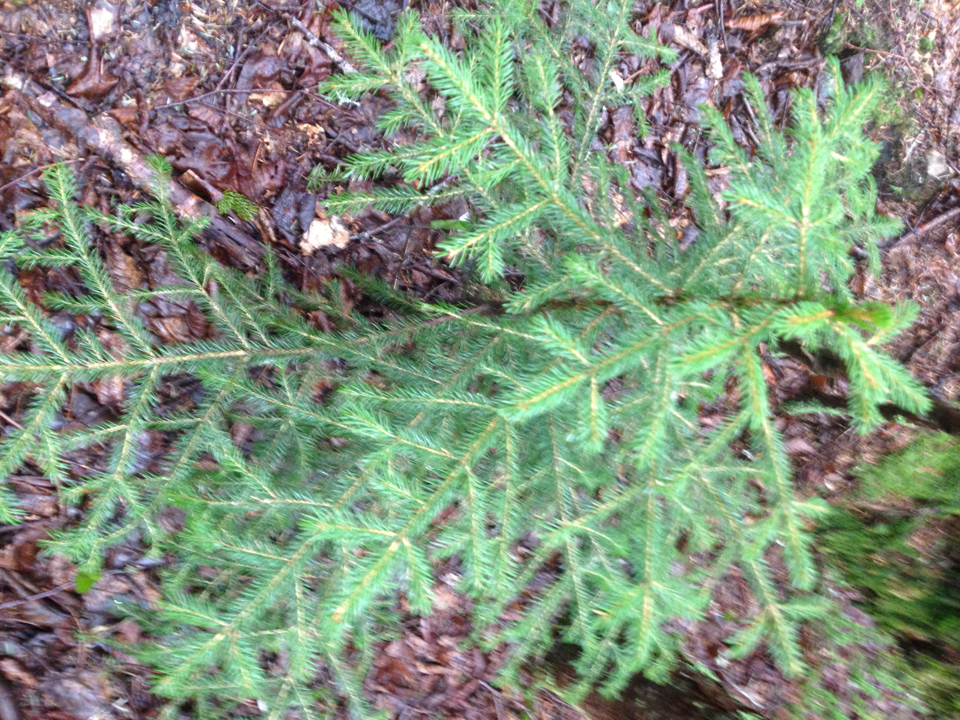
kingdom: Plantae
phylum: Tracheophyta
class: Pinopsida
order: Pinales
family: Pinaceae
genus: Picea
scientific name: Picea rubens
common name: Red spruce
